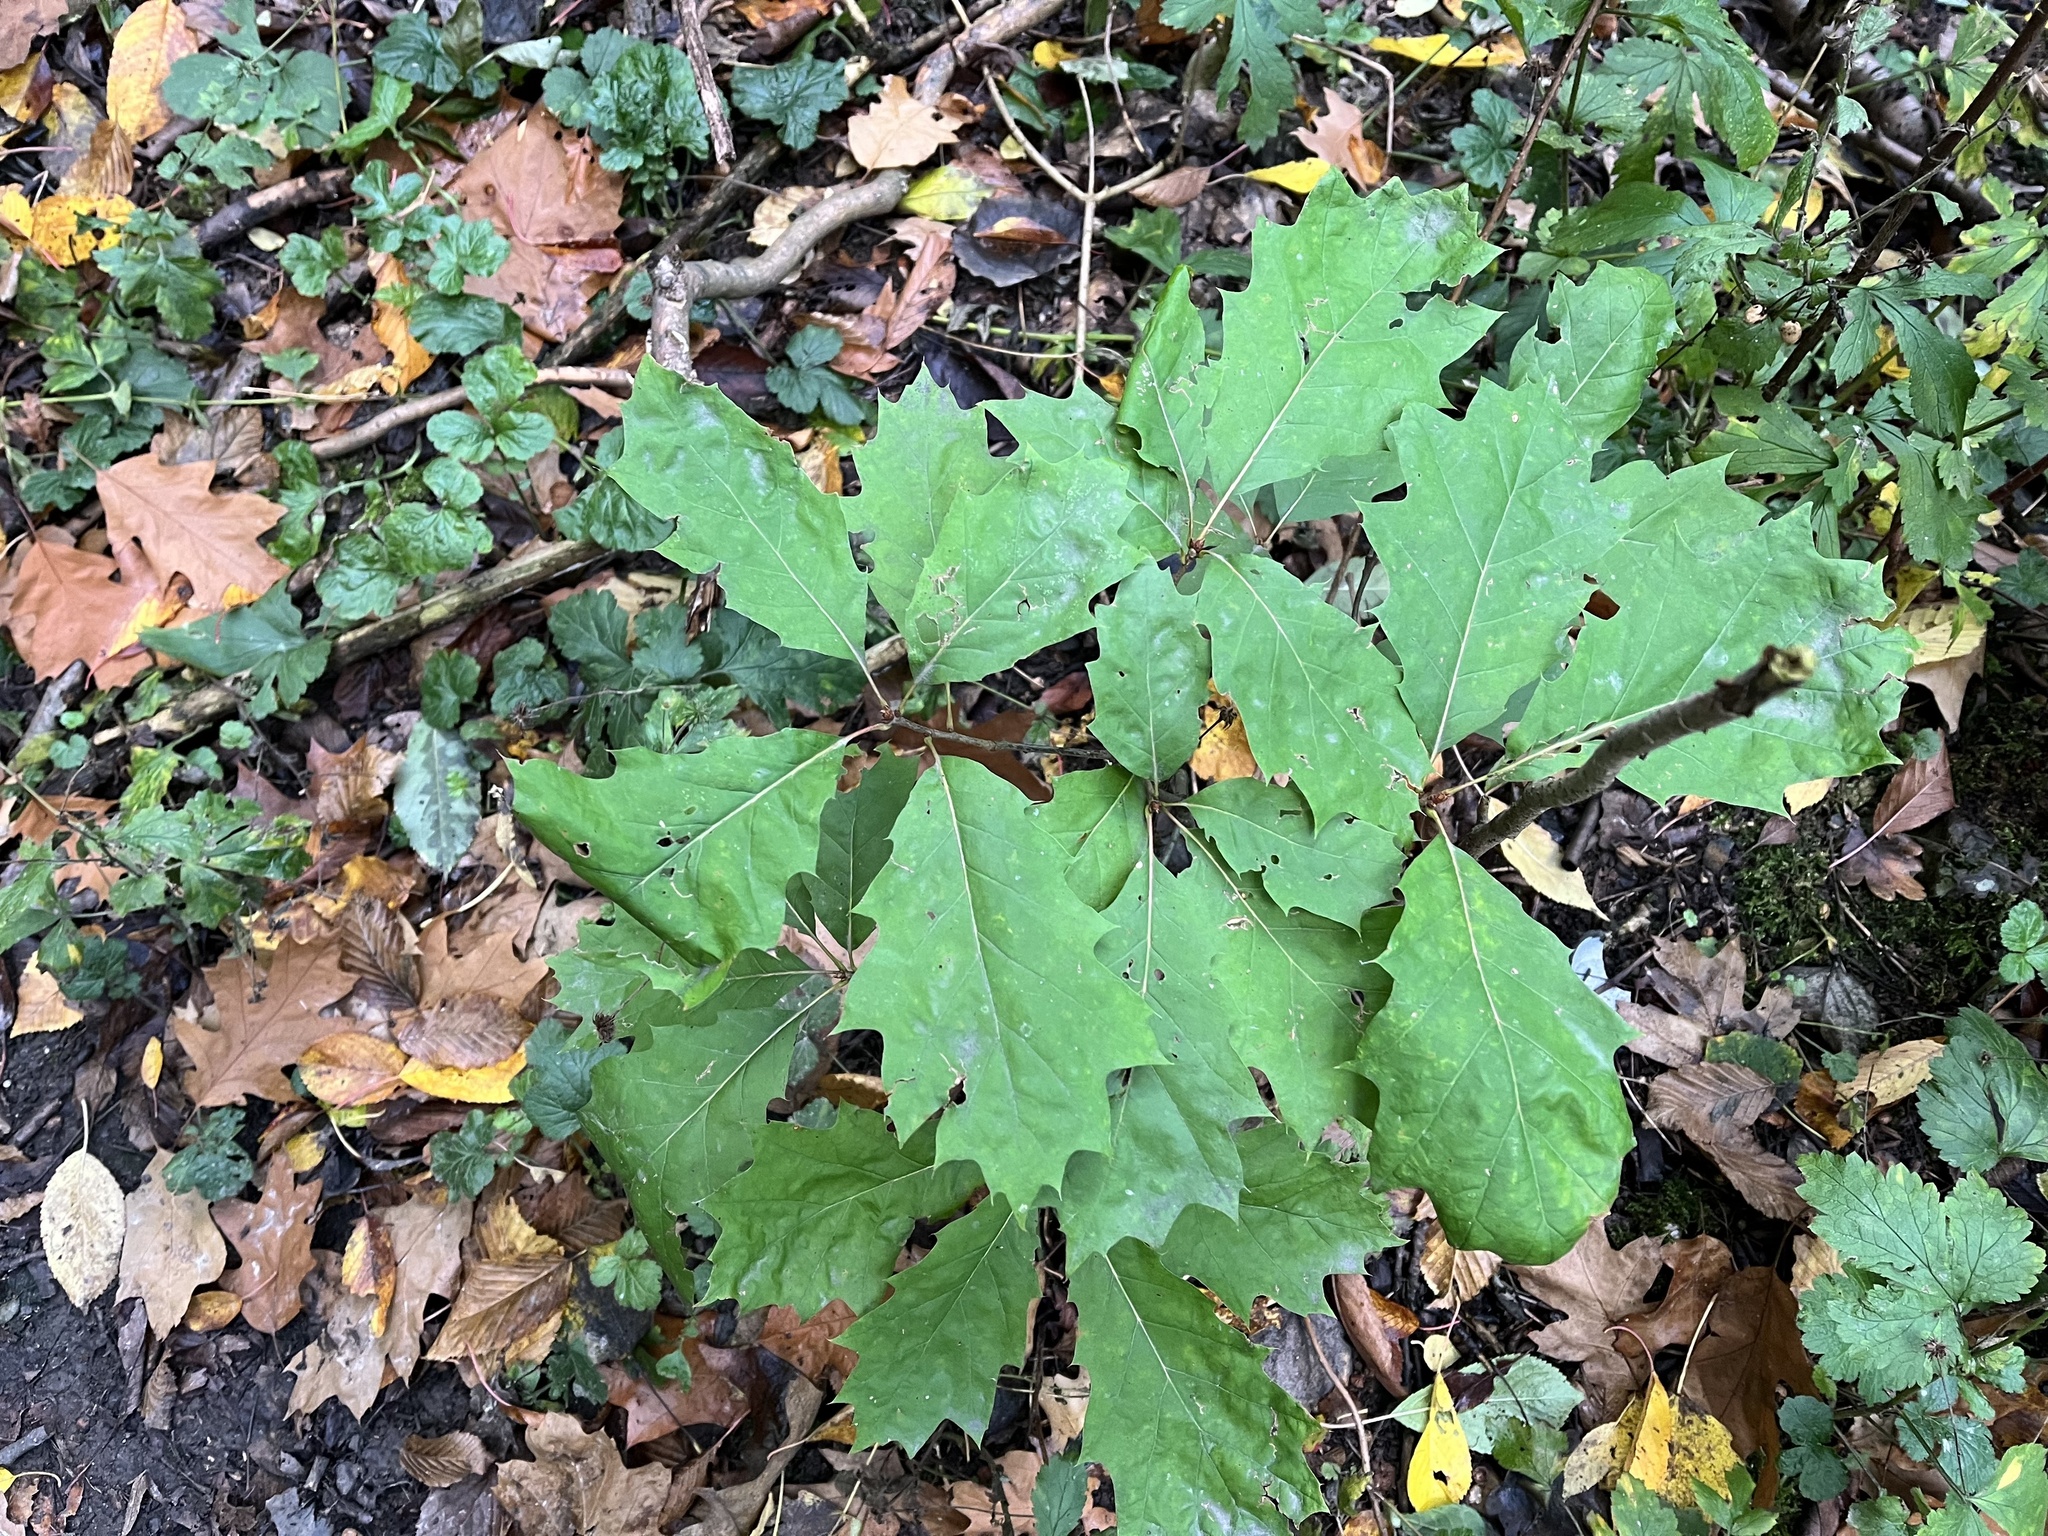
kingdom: Plantae
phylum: Tracheophyta
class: Magnoliopsida
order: Fagales
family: Fagaceae
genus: Quercus
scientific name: Quercus rubra
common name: Red oak
